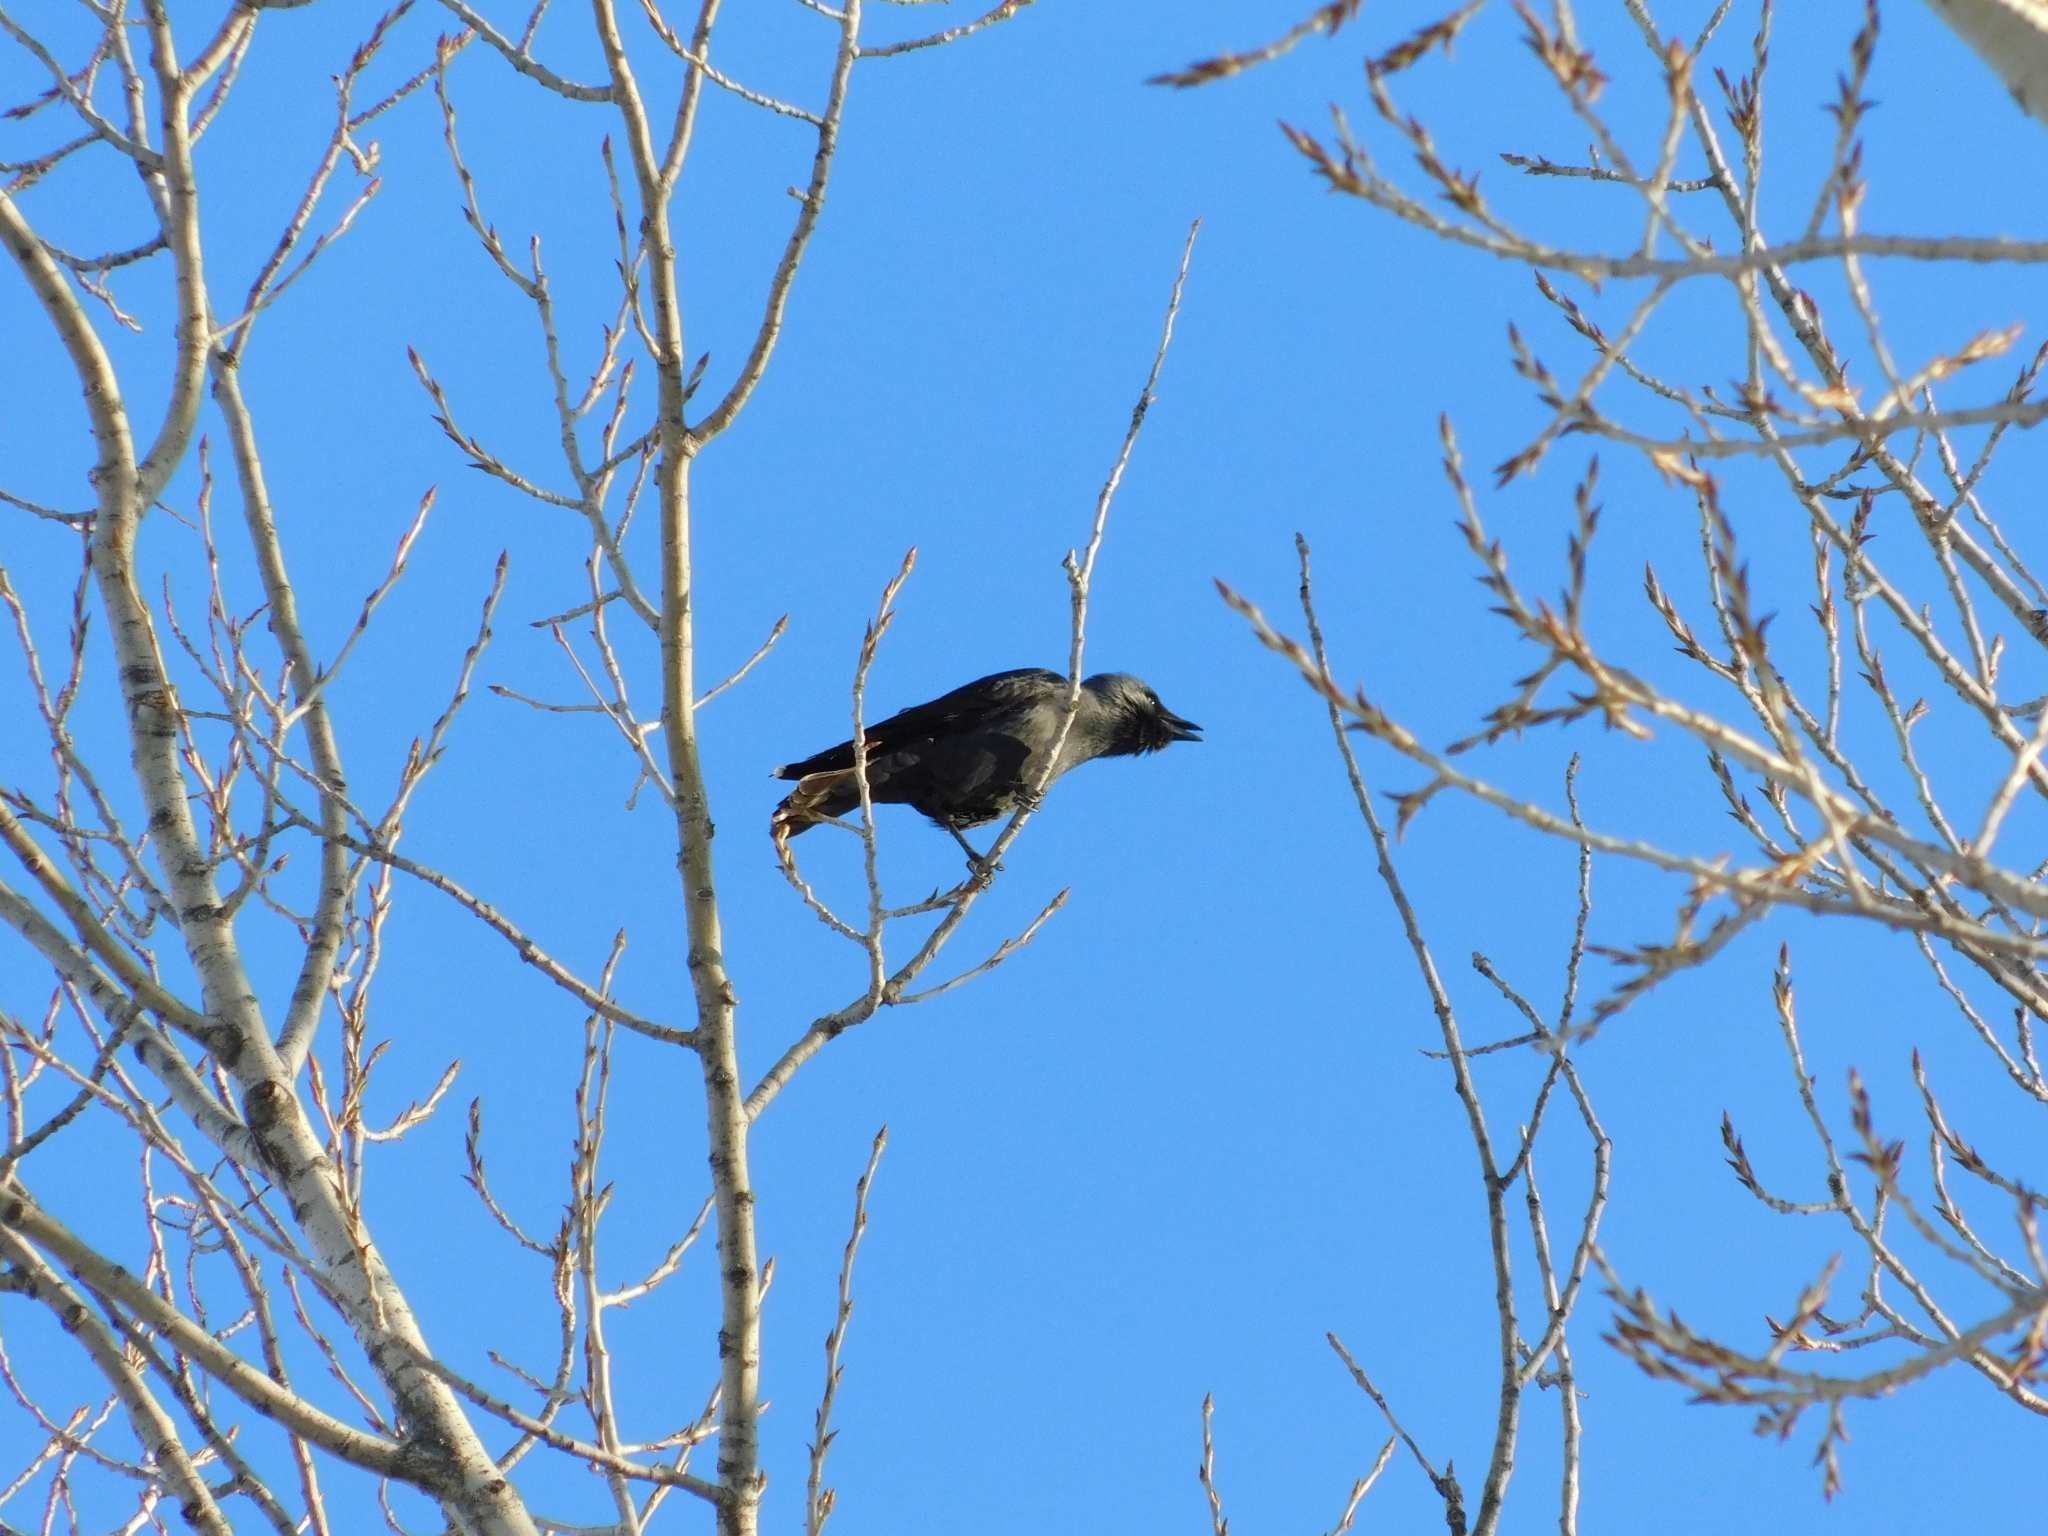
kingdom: Animalia
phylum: Chordata
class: Aves
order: Passeriformes
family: Corvidae
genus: Coloeus
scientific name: Coloeus monedula
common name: Western jackdaw
